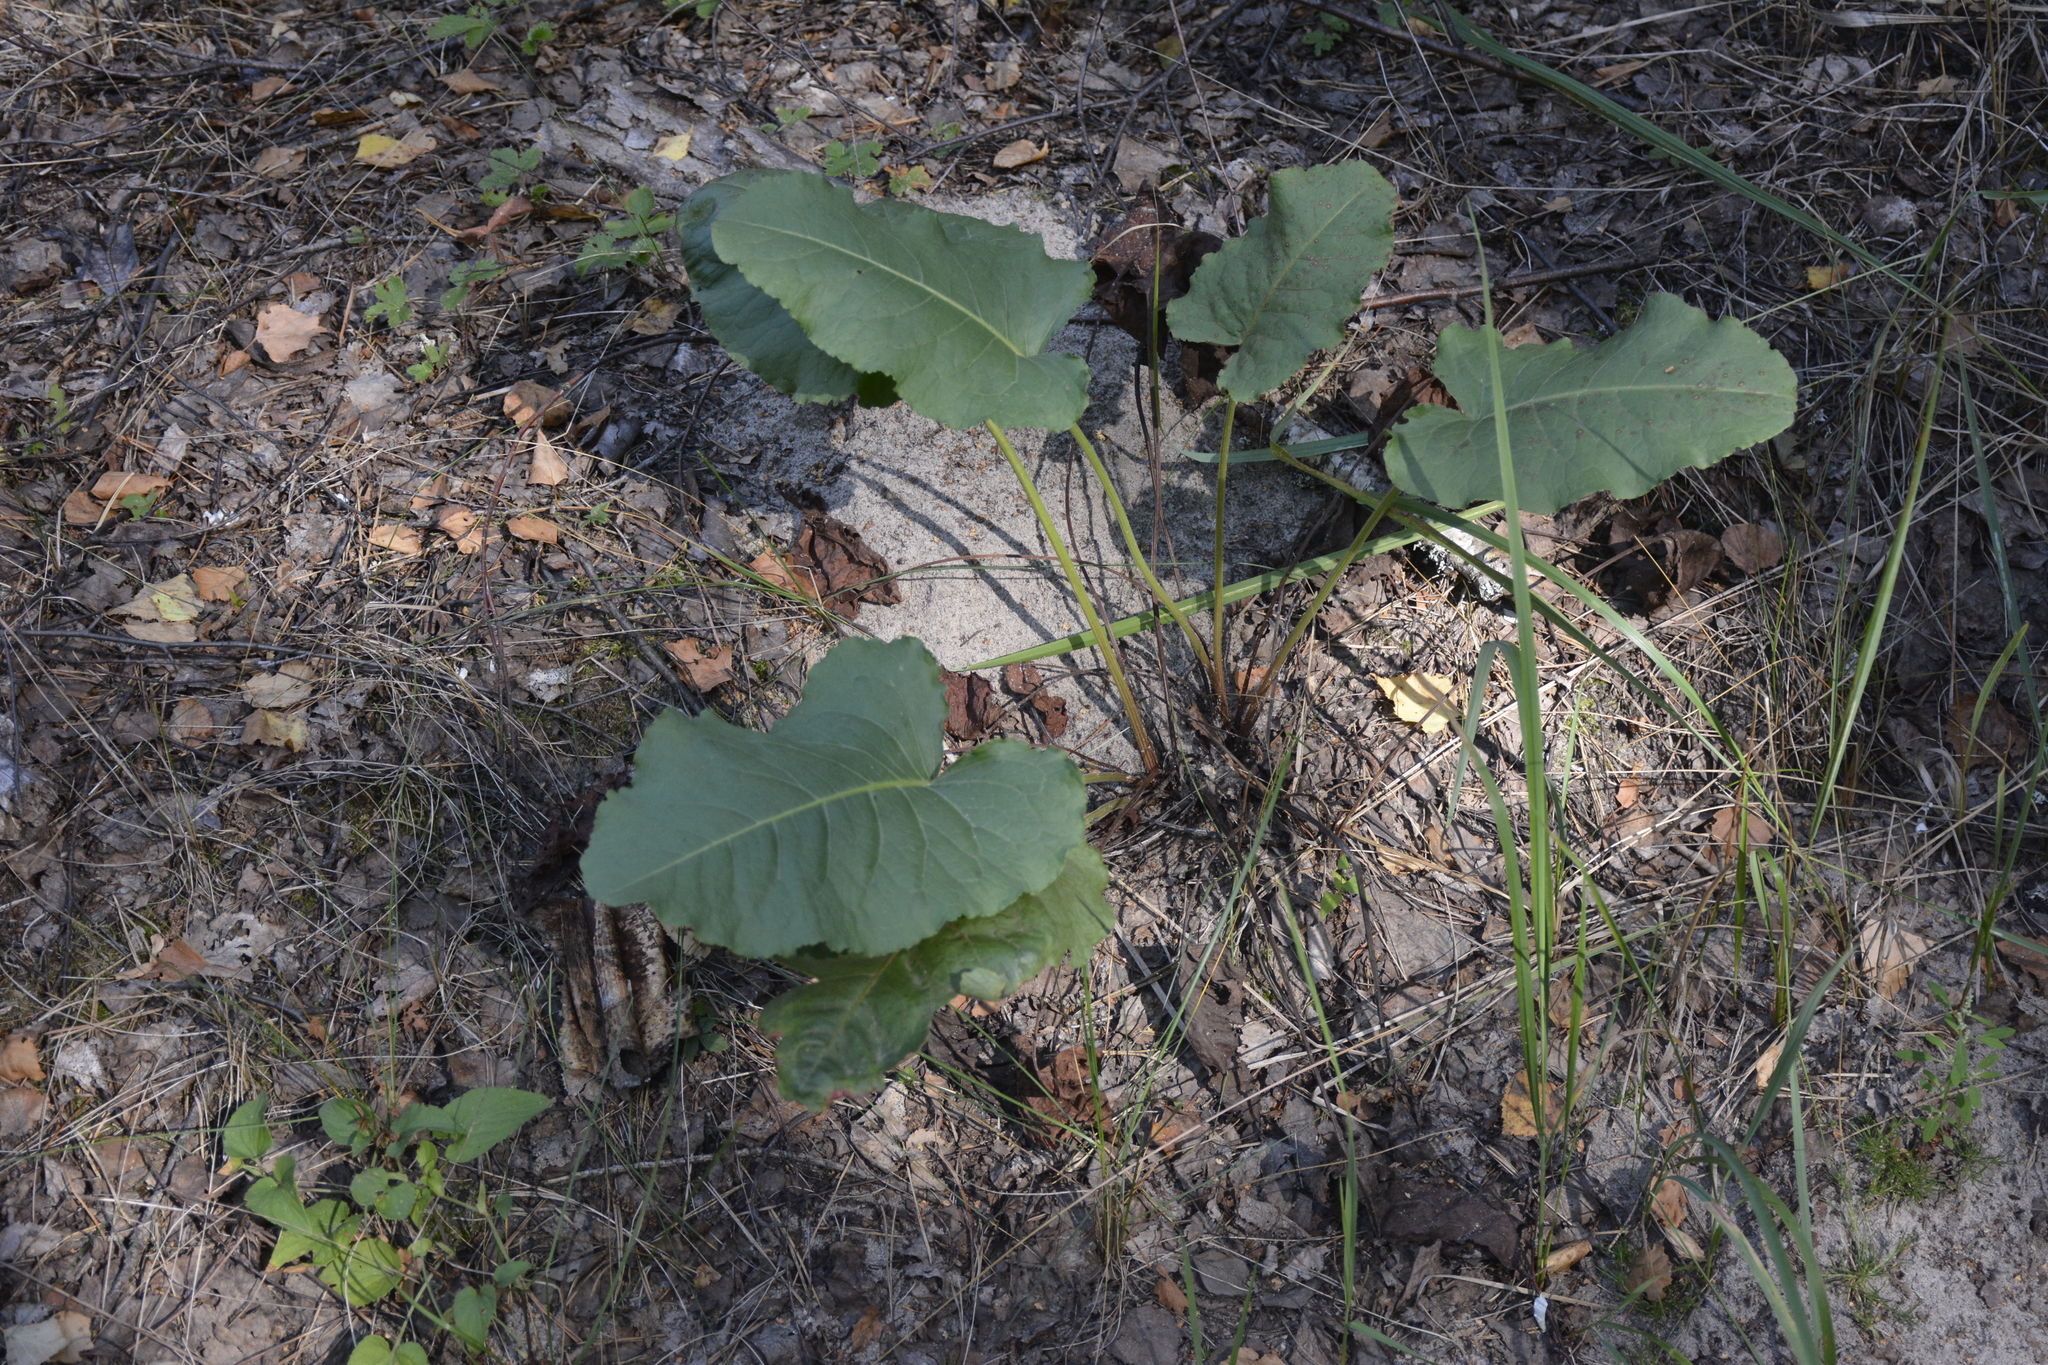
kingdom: Plantae
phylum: Tracheophyta
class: Magnoliopsida
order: Caryophyllales
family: Polygonaceae
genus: Rumex
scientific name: Rumex confertus
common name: Russian dock
